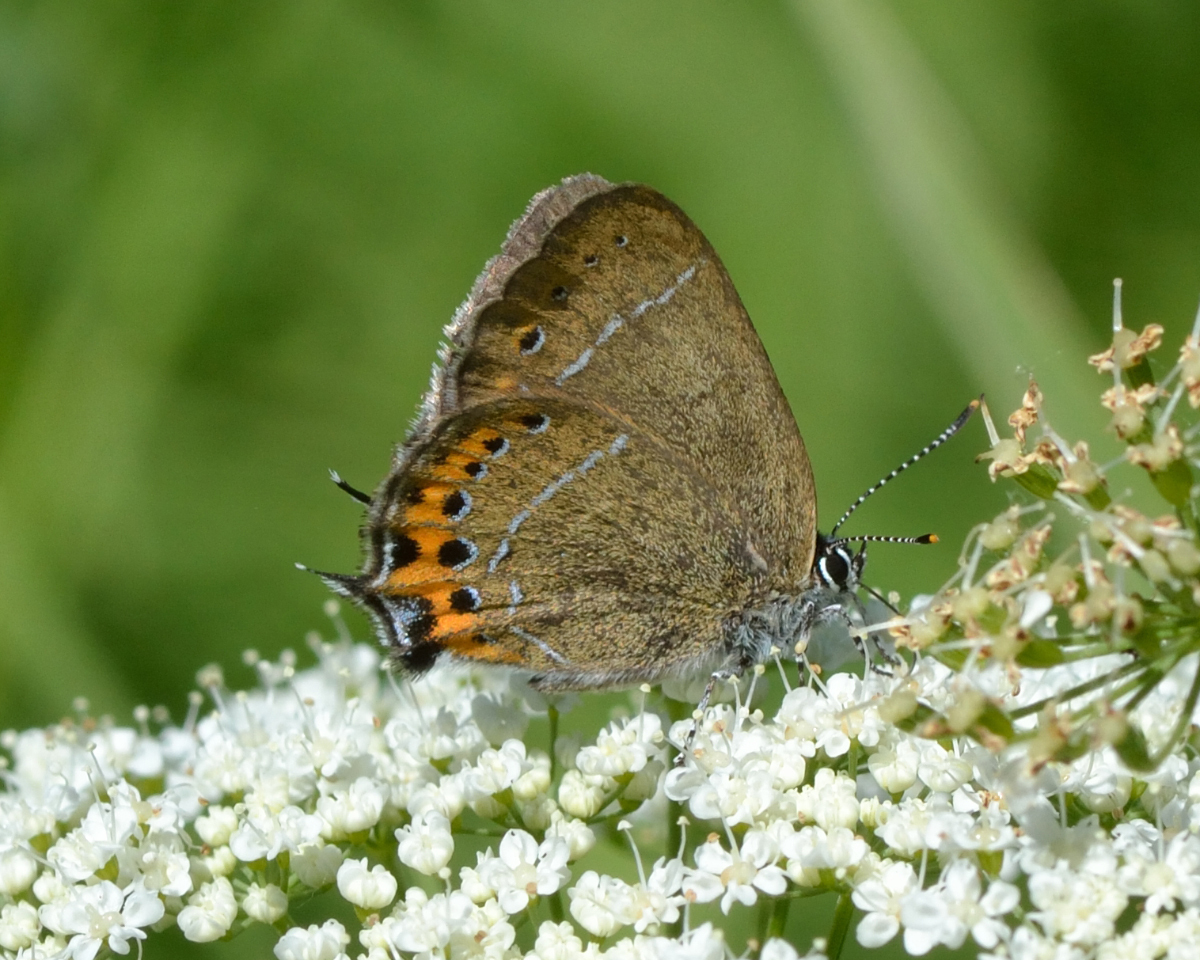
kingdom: Animalia
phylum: Arthropoda
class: Insecta
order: Lepidoptera
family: Lycaenidae
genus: Fixsenia
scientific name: Fixsenia pruni
